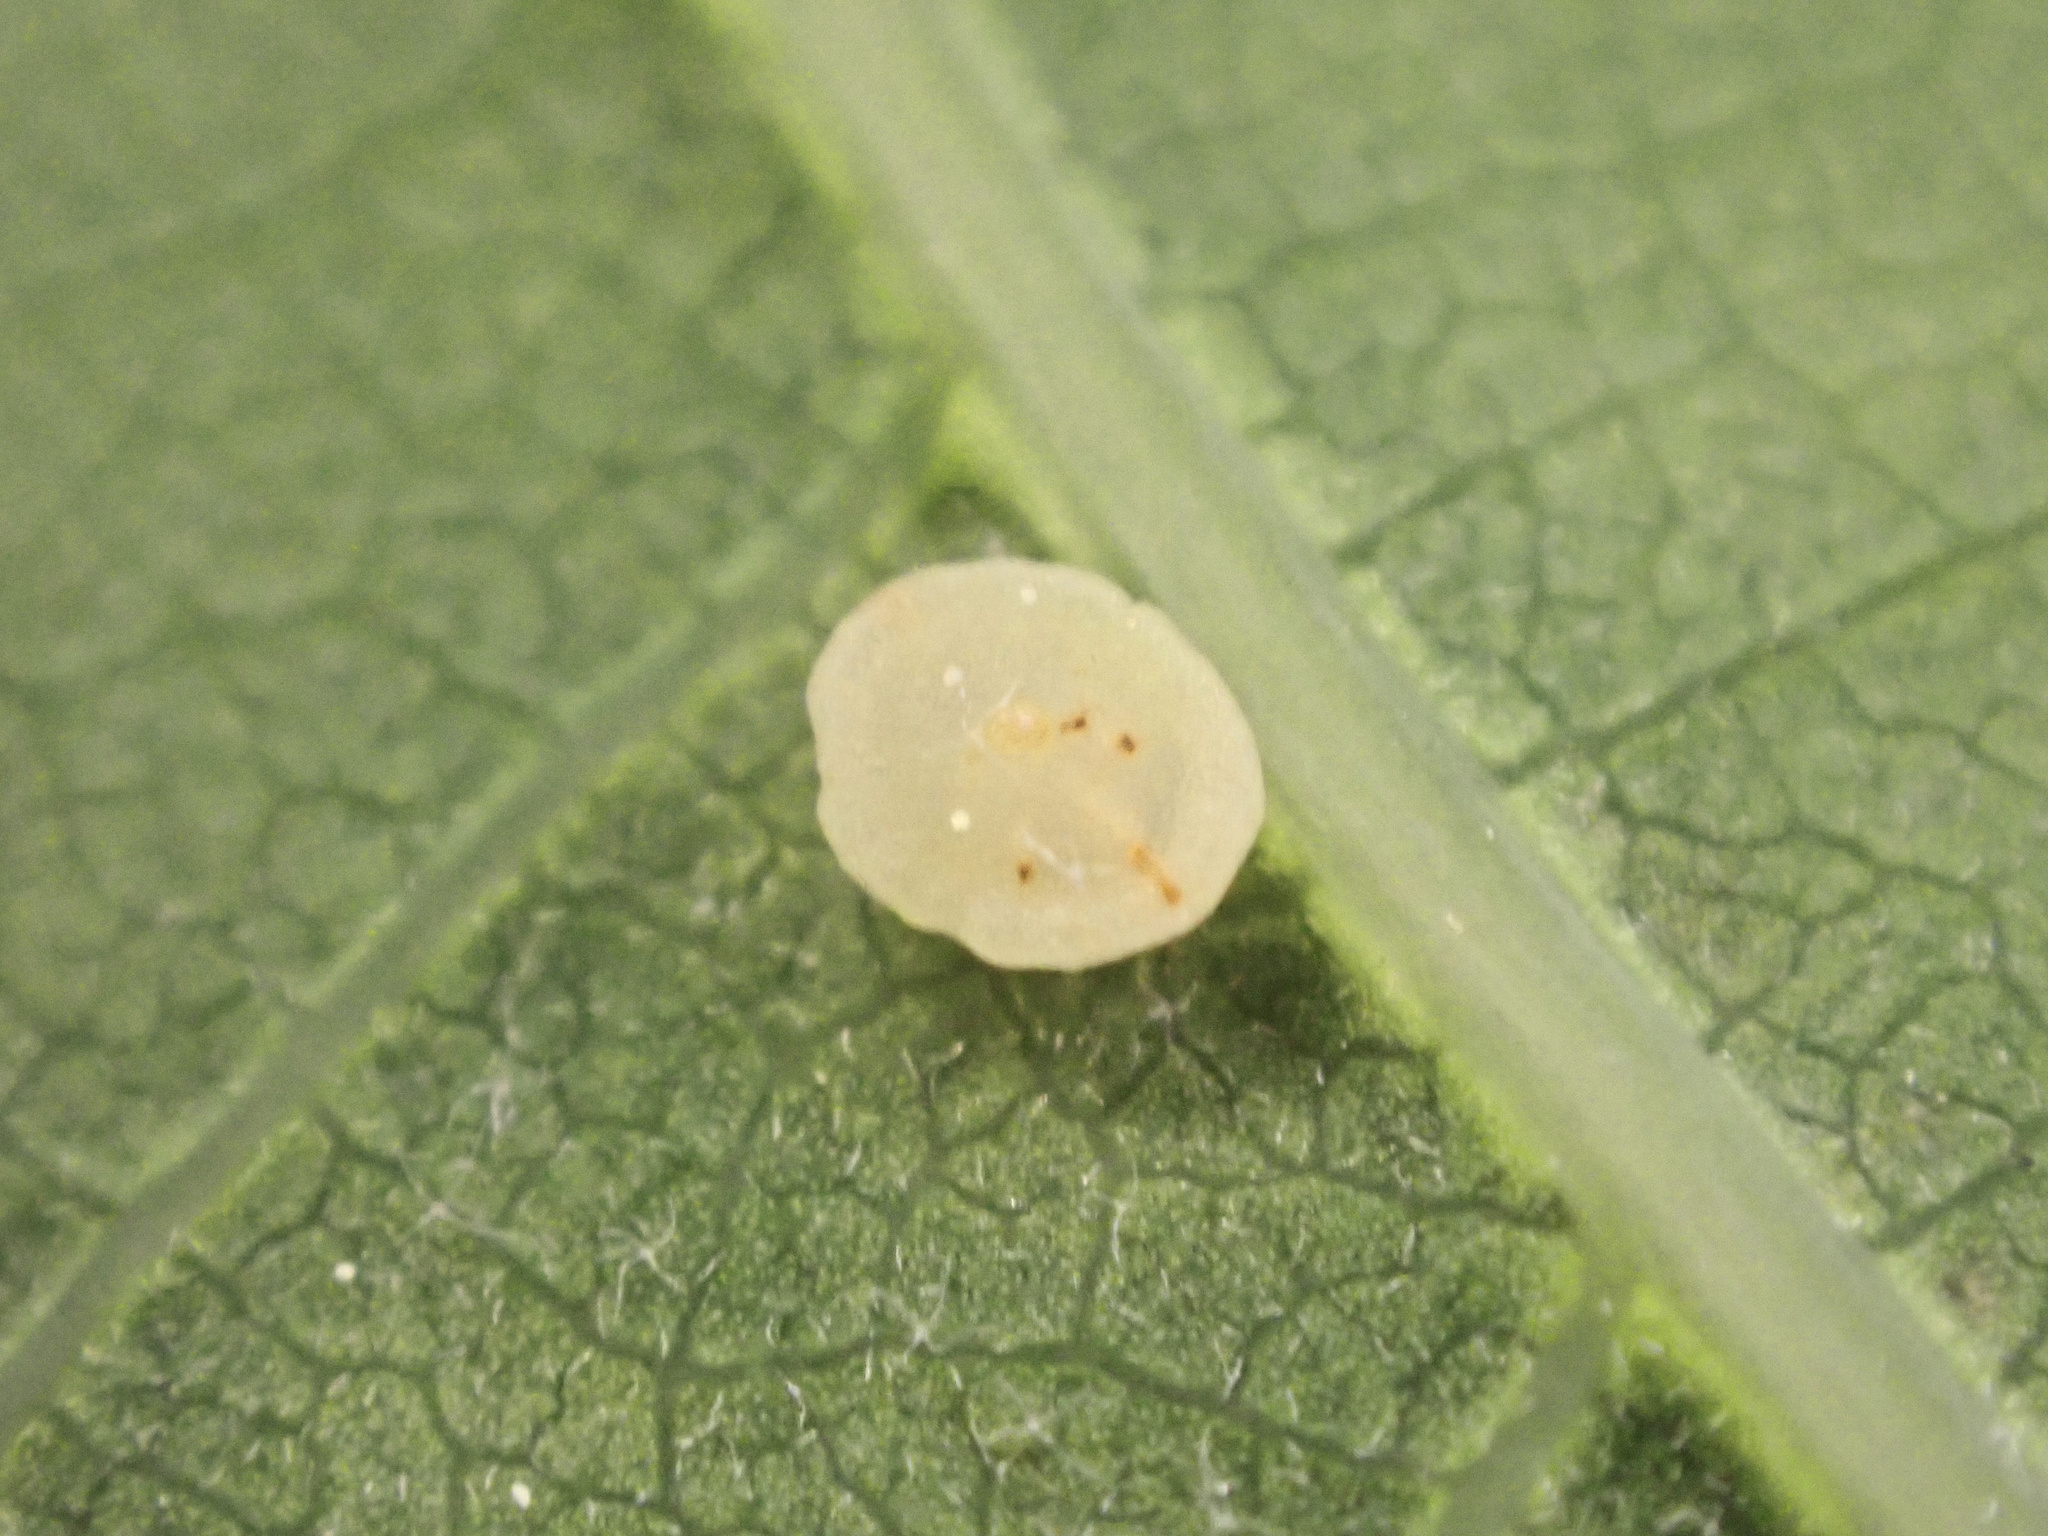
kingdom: Animalia
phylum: Arthropoda
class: Insecta
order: Hymenoptera
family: Cynipidae
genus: Neuroterus
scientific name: Neuroterus
